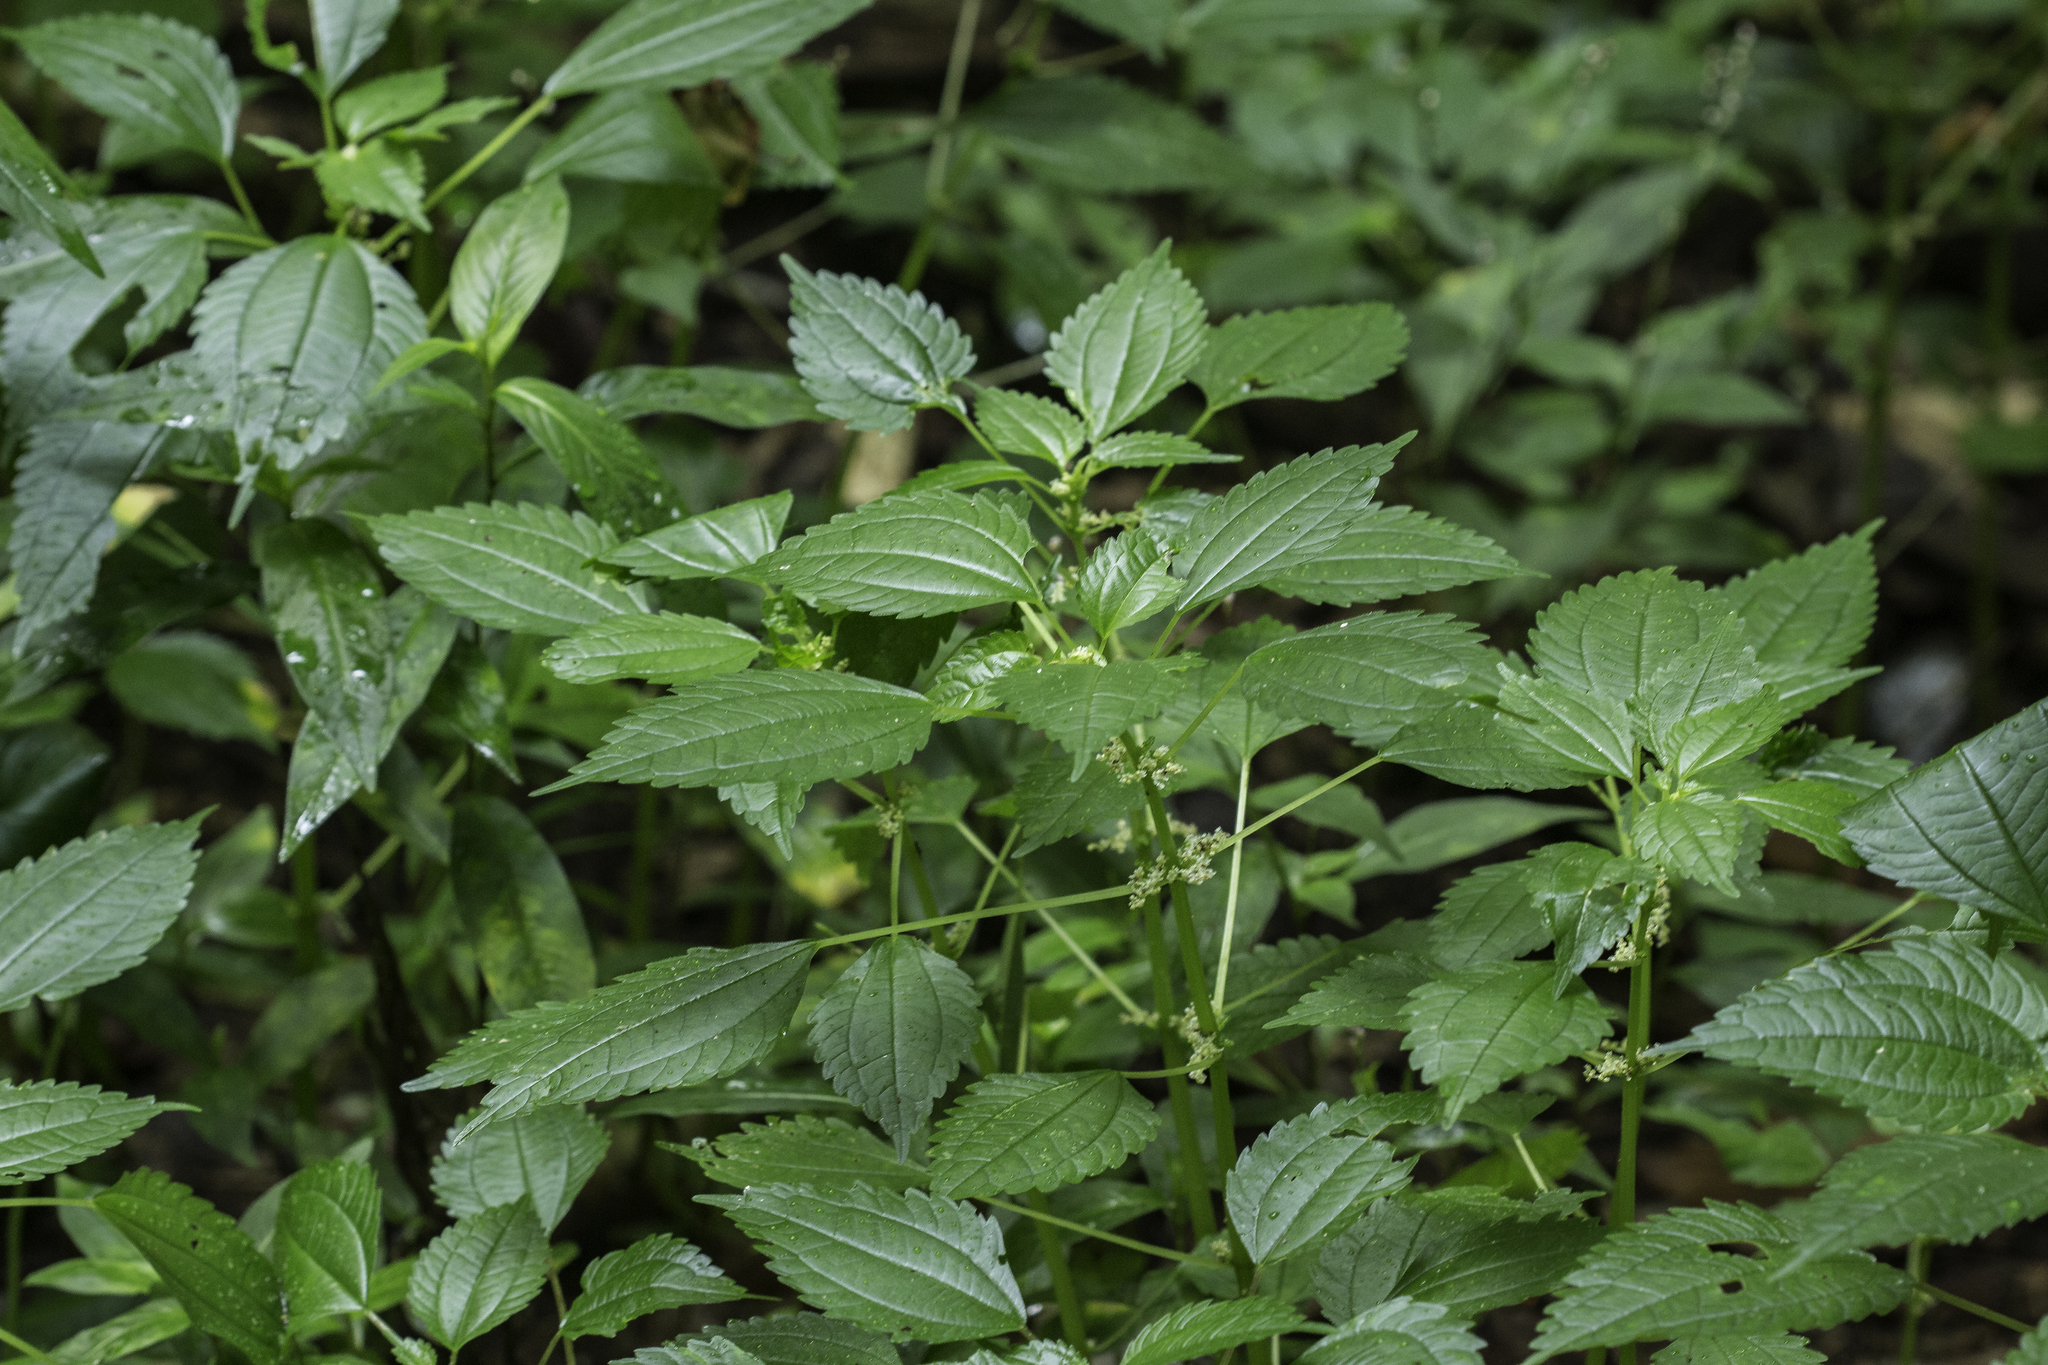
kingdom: Plantae
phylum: Tracheophyta
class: Magnoliopsida
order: Rosales
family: Urticaceae
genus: Pilea
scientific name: Pilea pumila
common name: Clearweed
